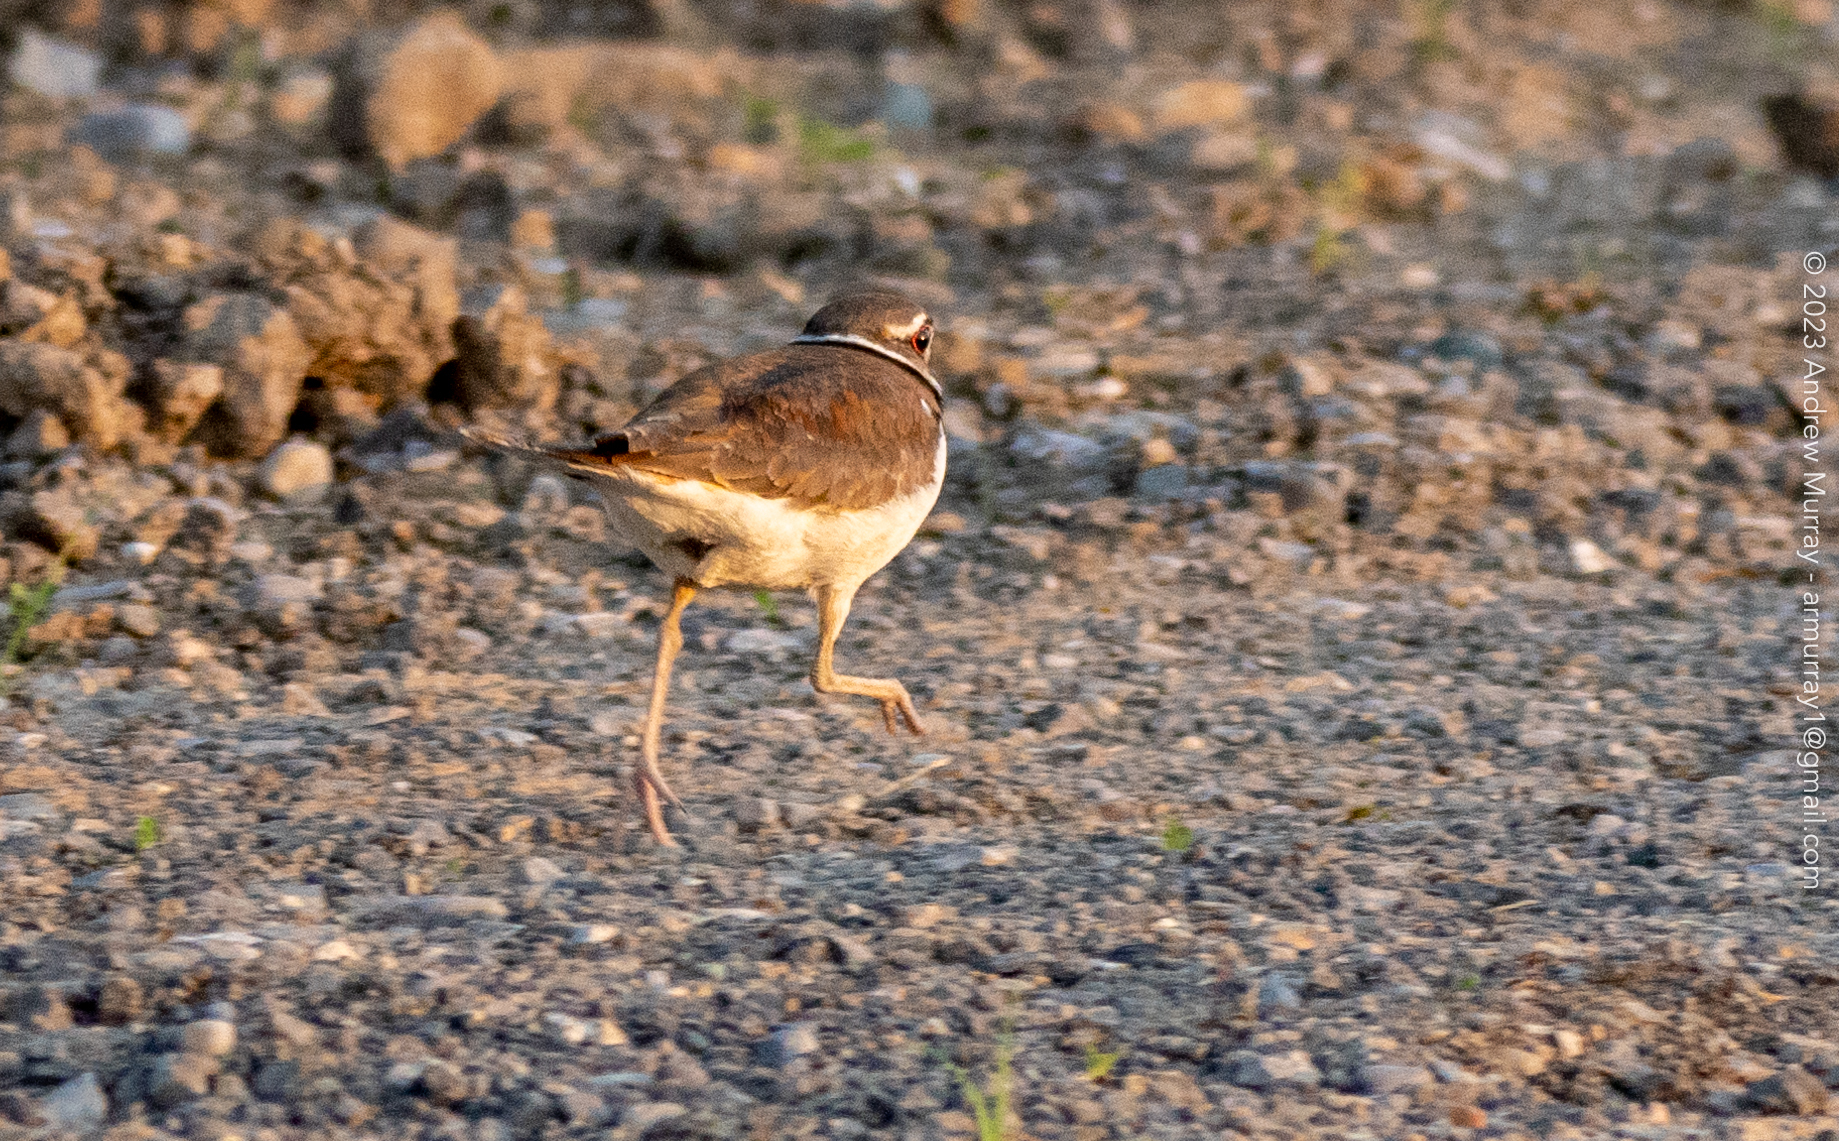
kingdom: Animalia
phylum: Chordata
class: Aves
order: Charadriiformes
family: Charadriidae
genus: Charadrius
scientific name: Charadrius vociferus
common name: Killdeer
